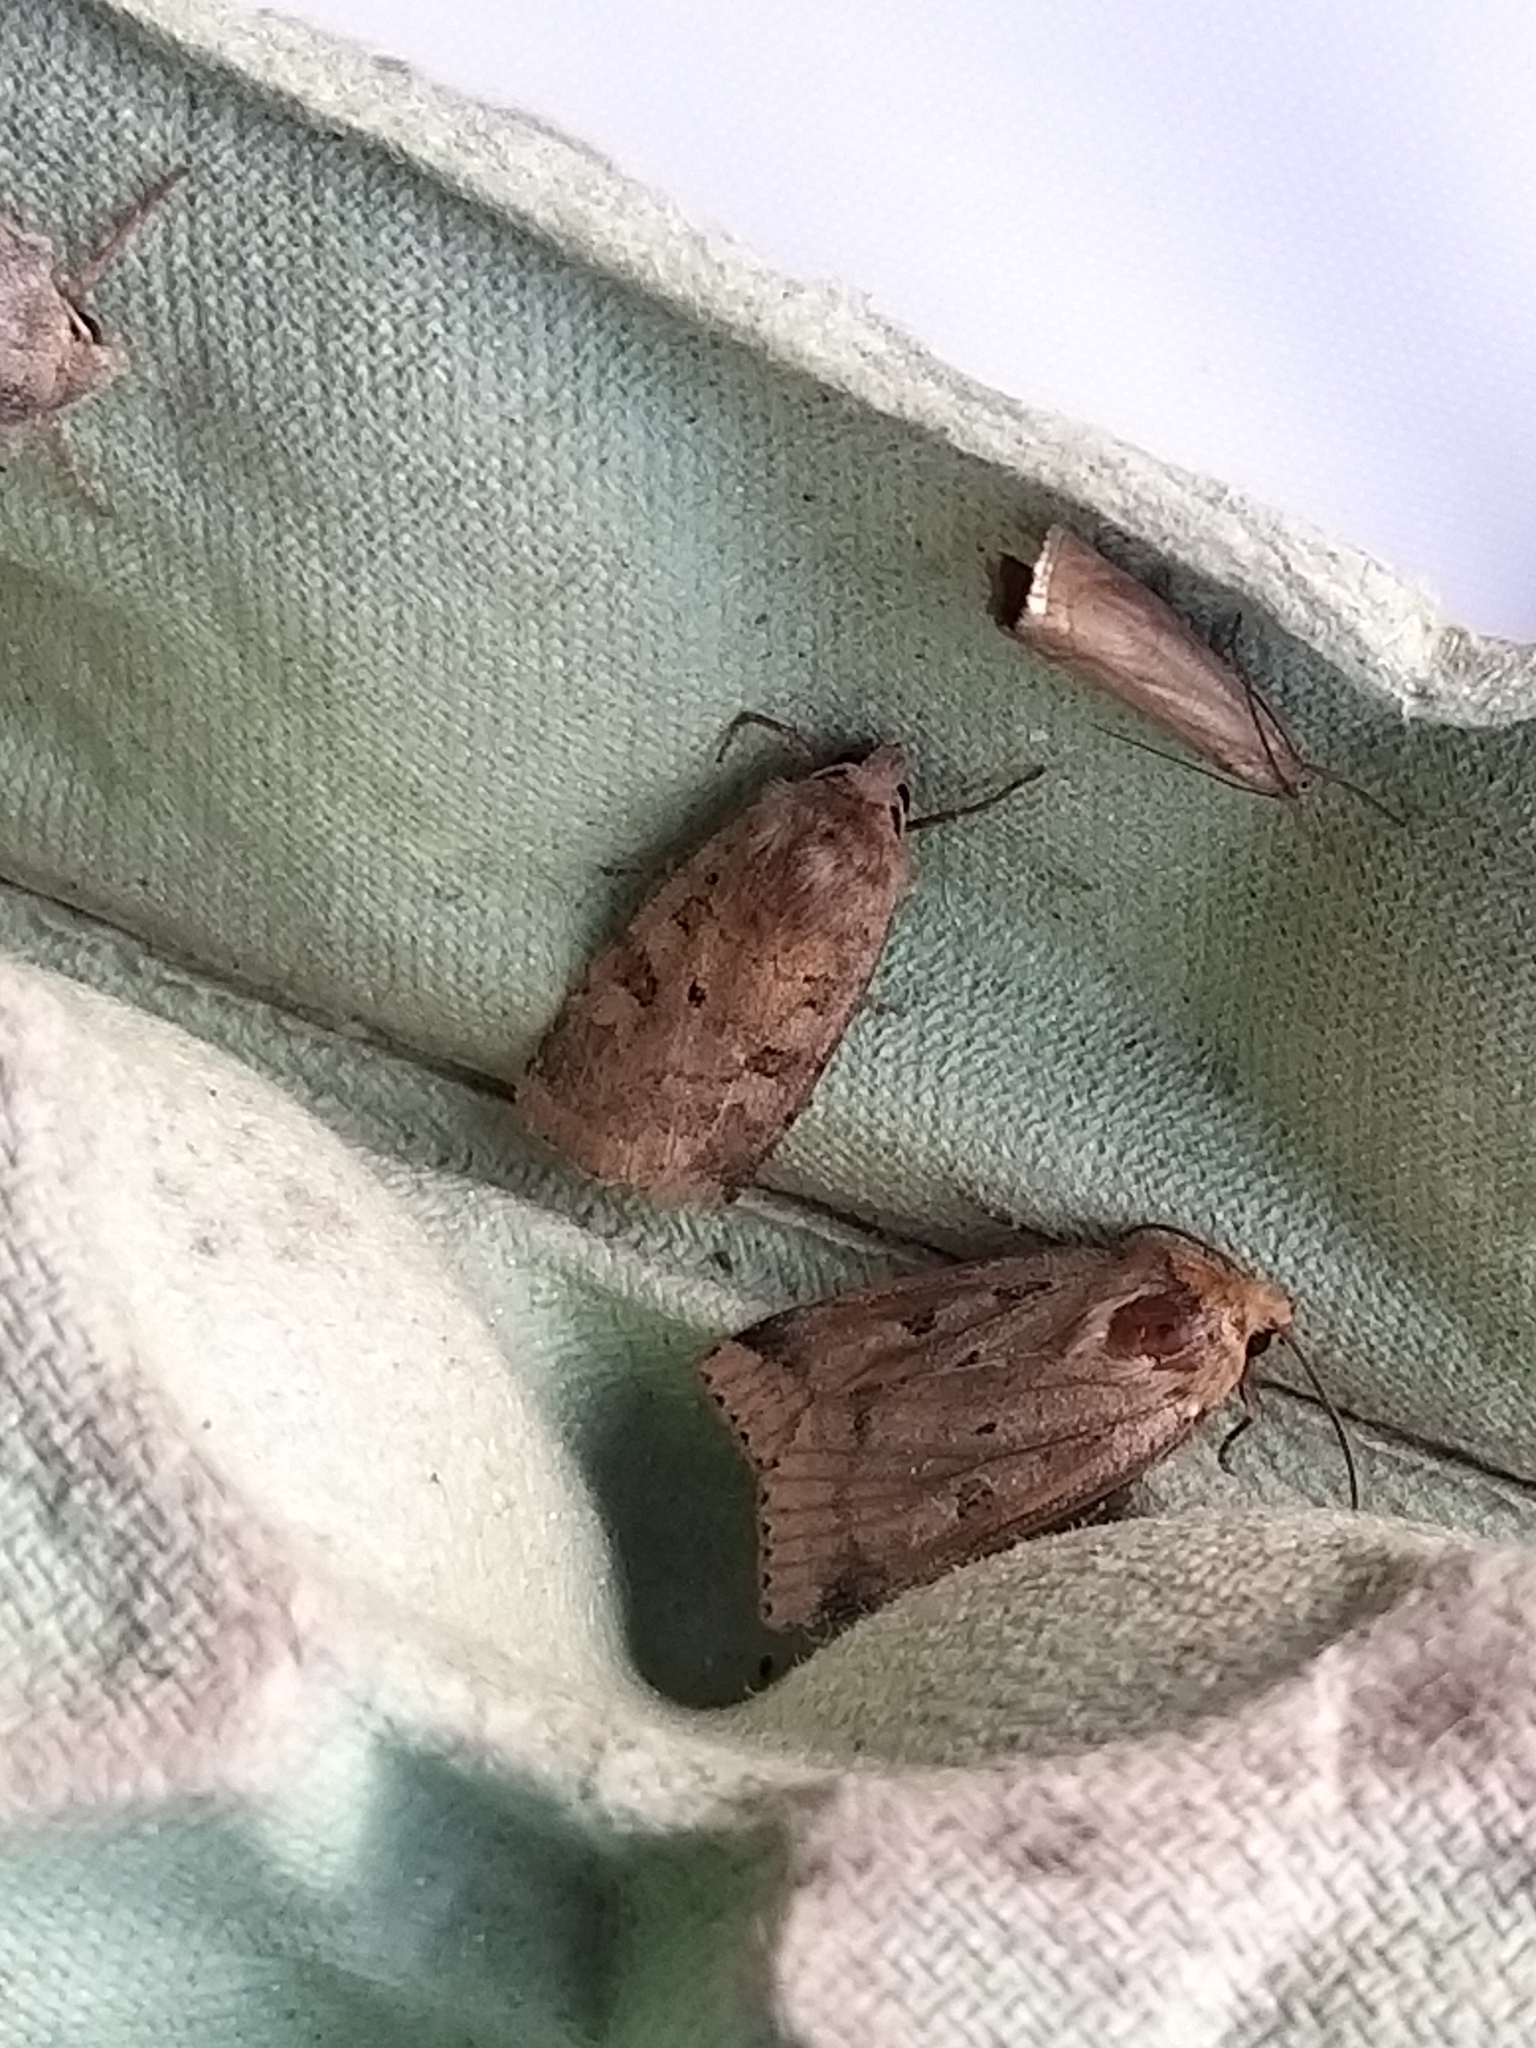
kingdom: Animalia
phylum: Arthropoda
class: Insecta
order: Lepidoptera
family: Noctuidae
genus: Diarsia
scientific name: Diarsia mendica
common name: Ingrailed clay
